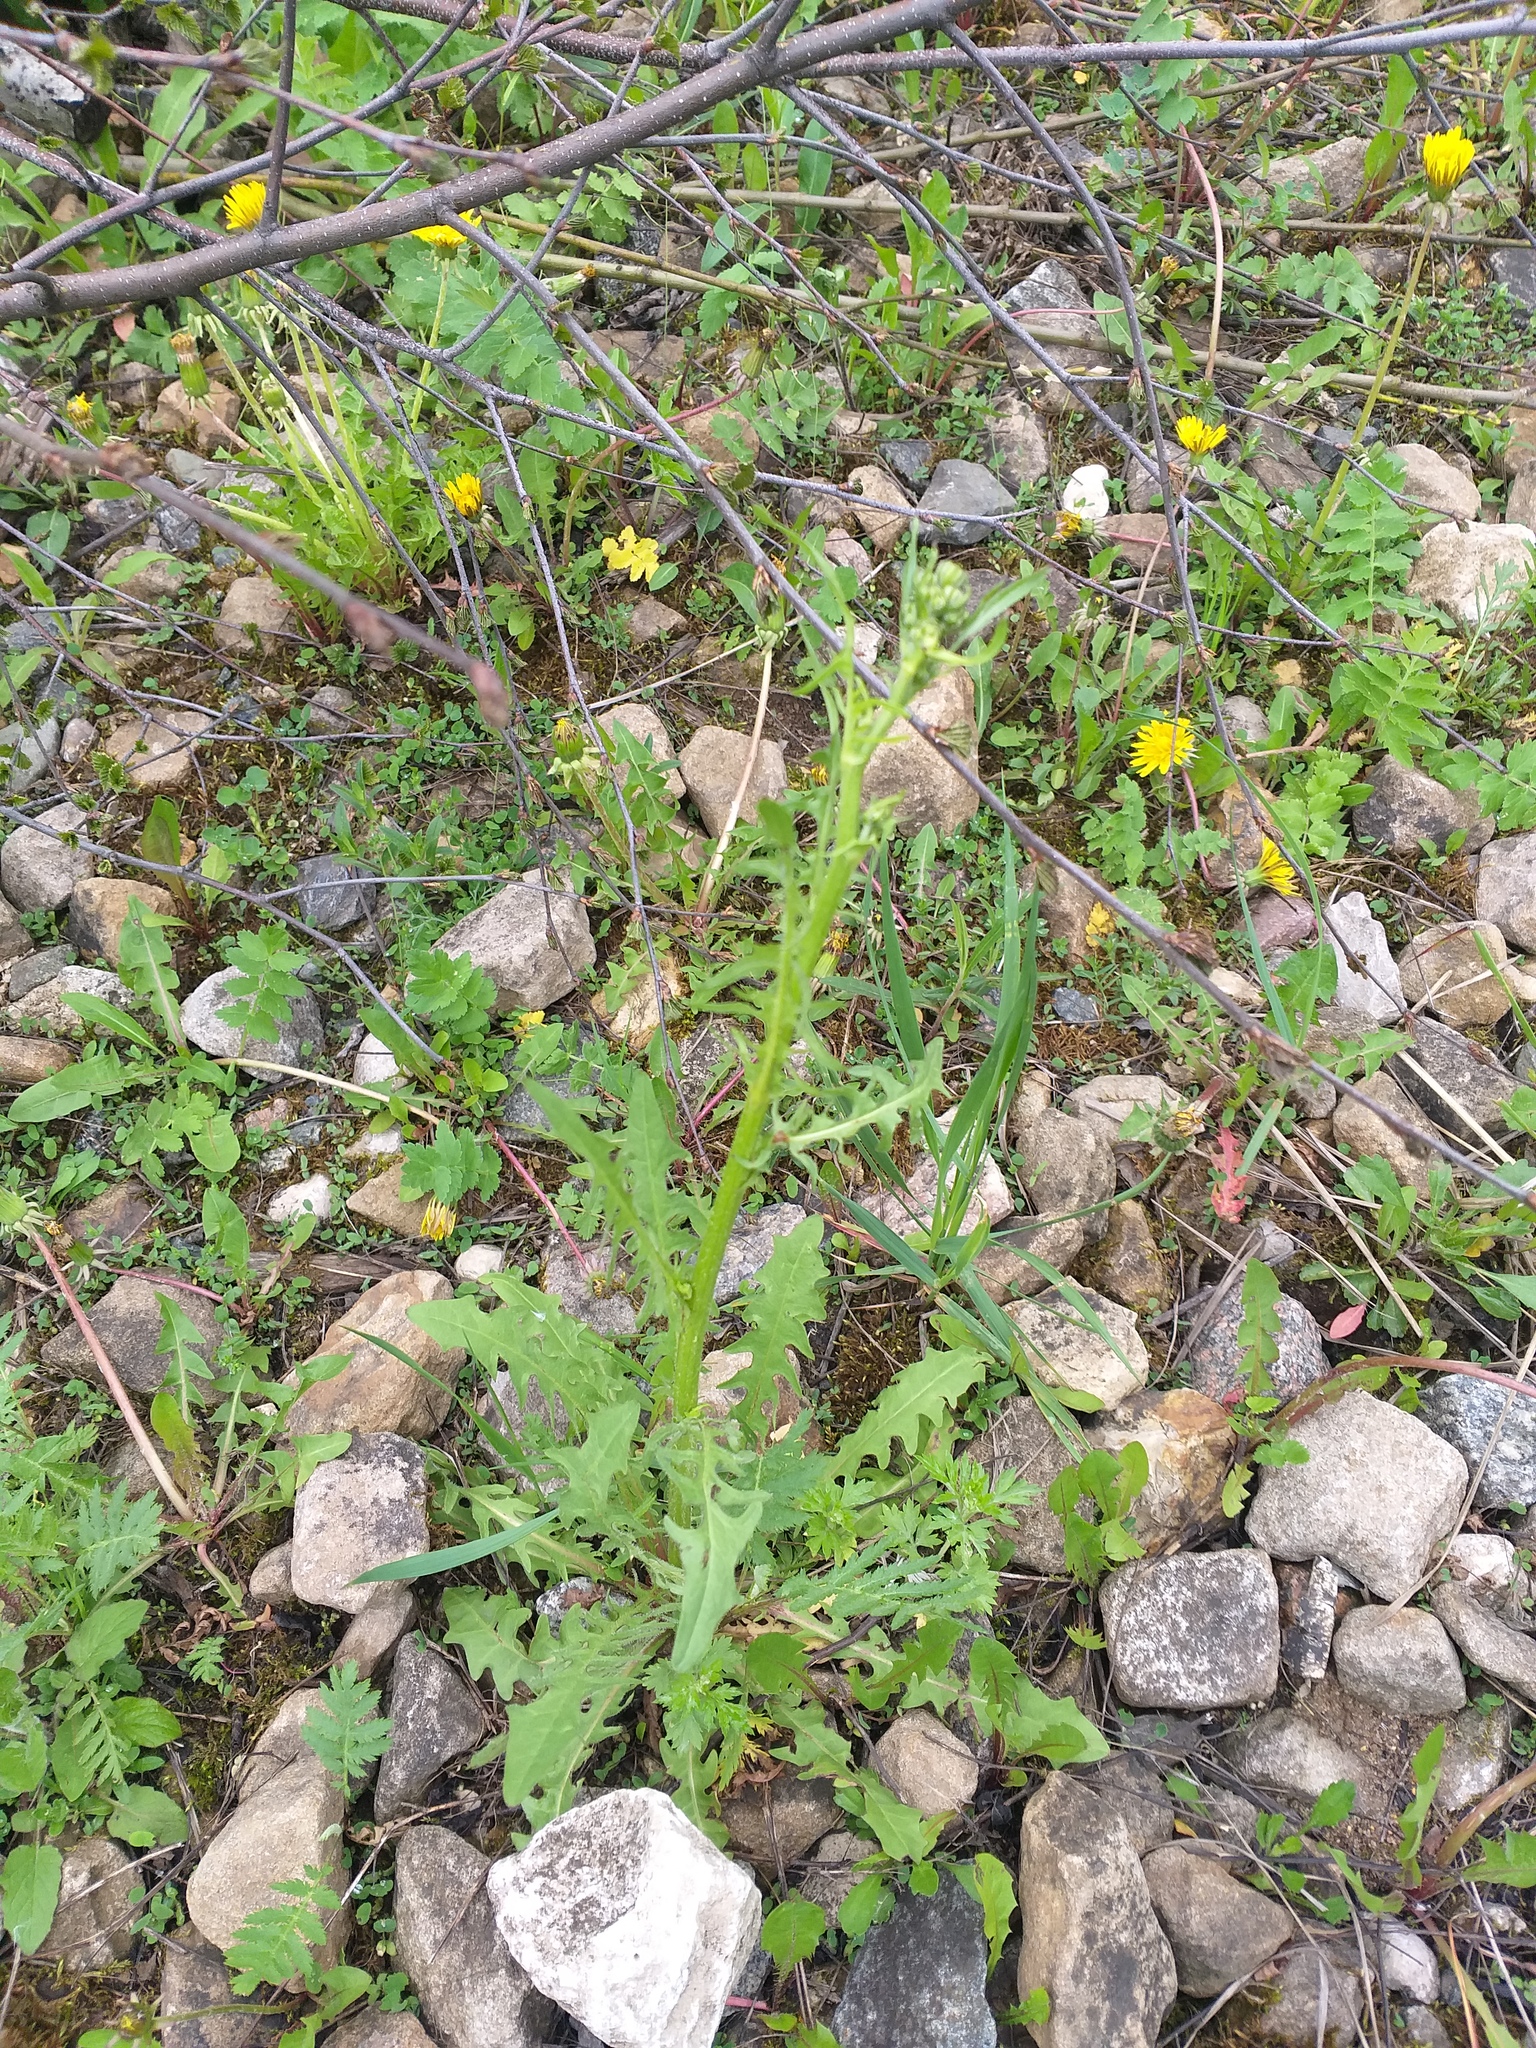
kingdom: Plantae
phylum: Tracheophyta
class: Magnoliopsida
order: Asterales
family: Asteraceae
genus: Crepis
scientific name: Crepis biennis
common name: Rough hawk's-beard
